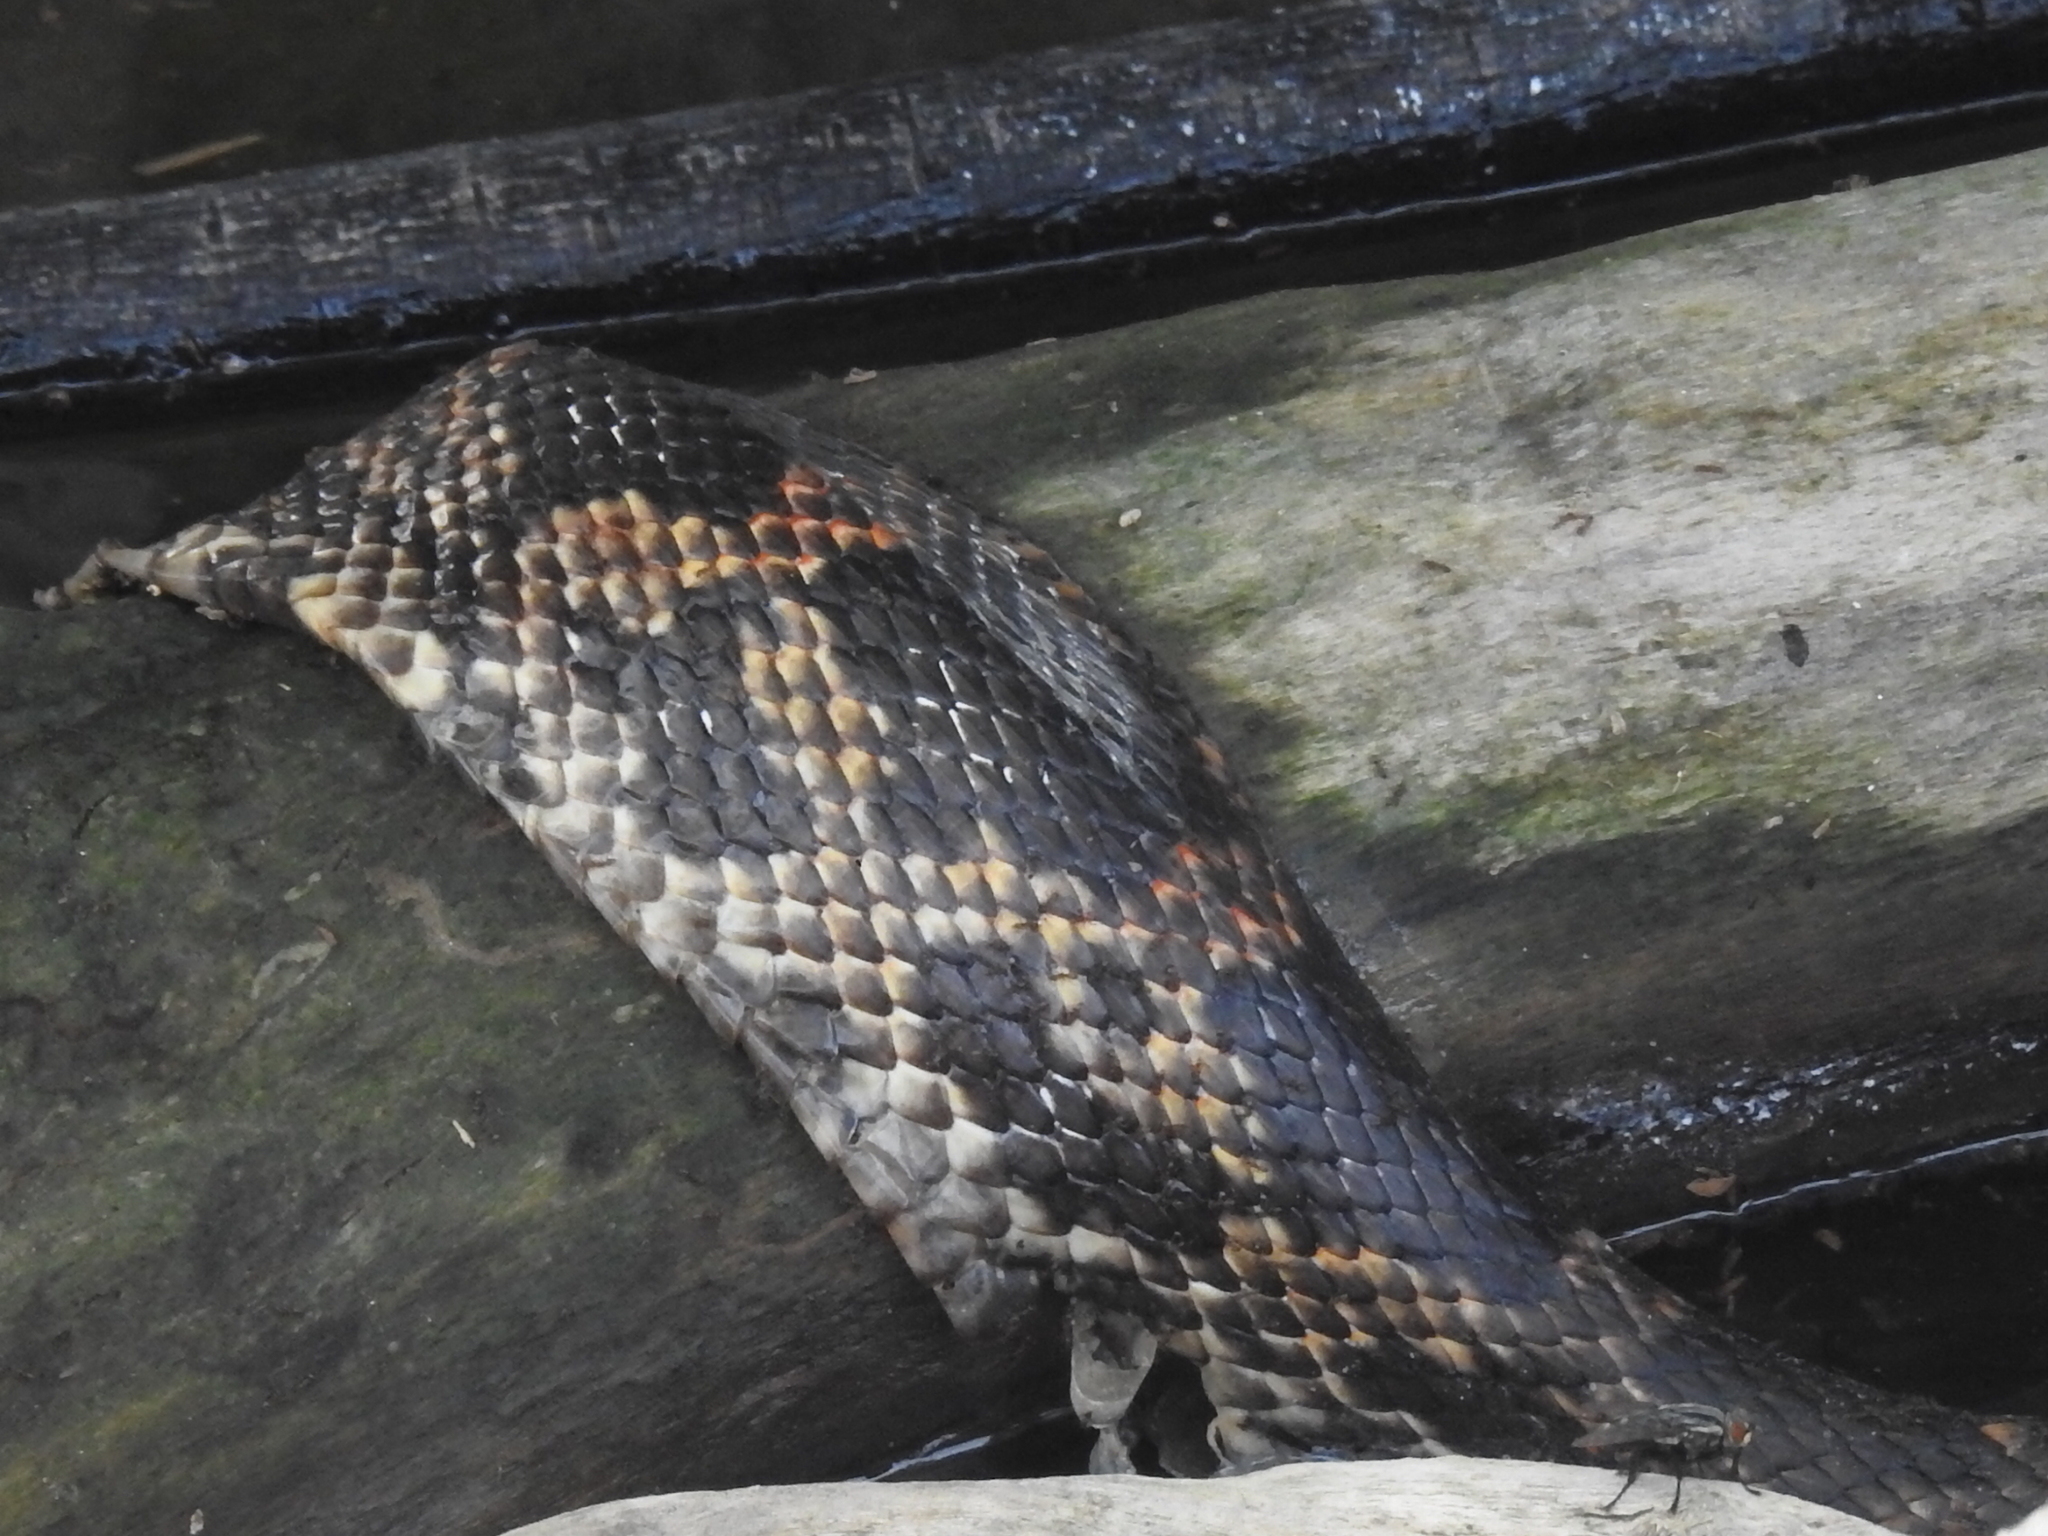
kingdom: Animalia
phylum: Chordata
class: Squamata
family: Colubridae
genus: Pantherophis
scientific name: Pantherophis obsoletus
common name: Black rat snake
